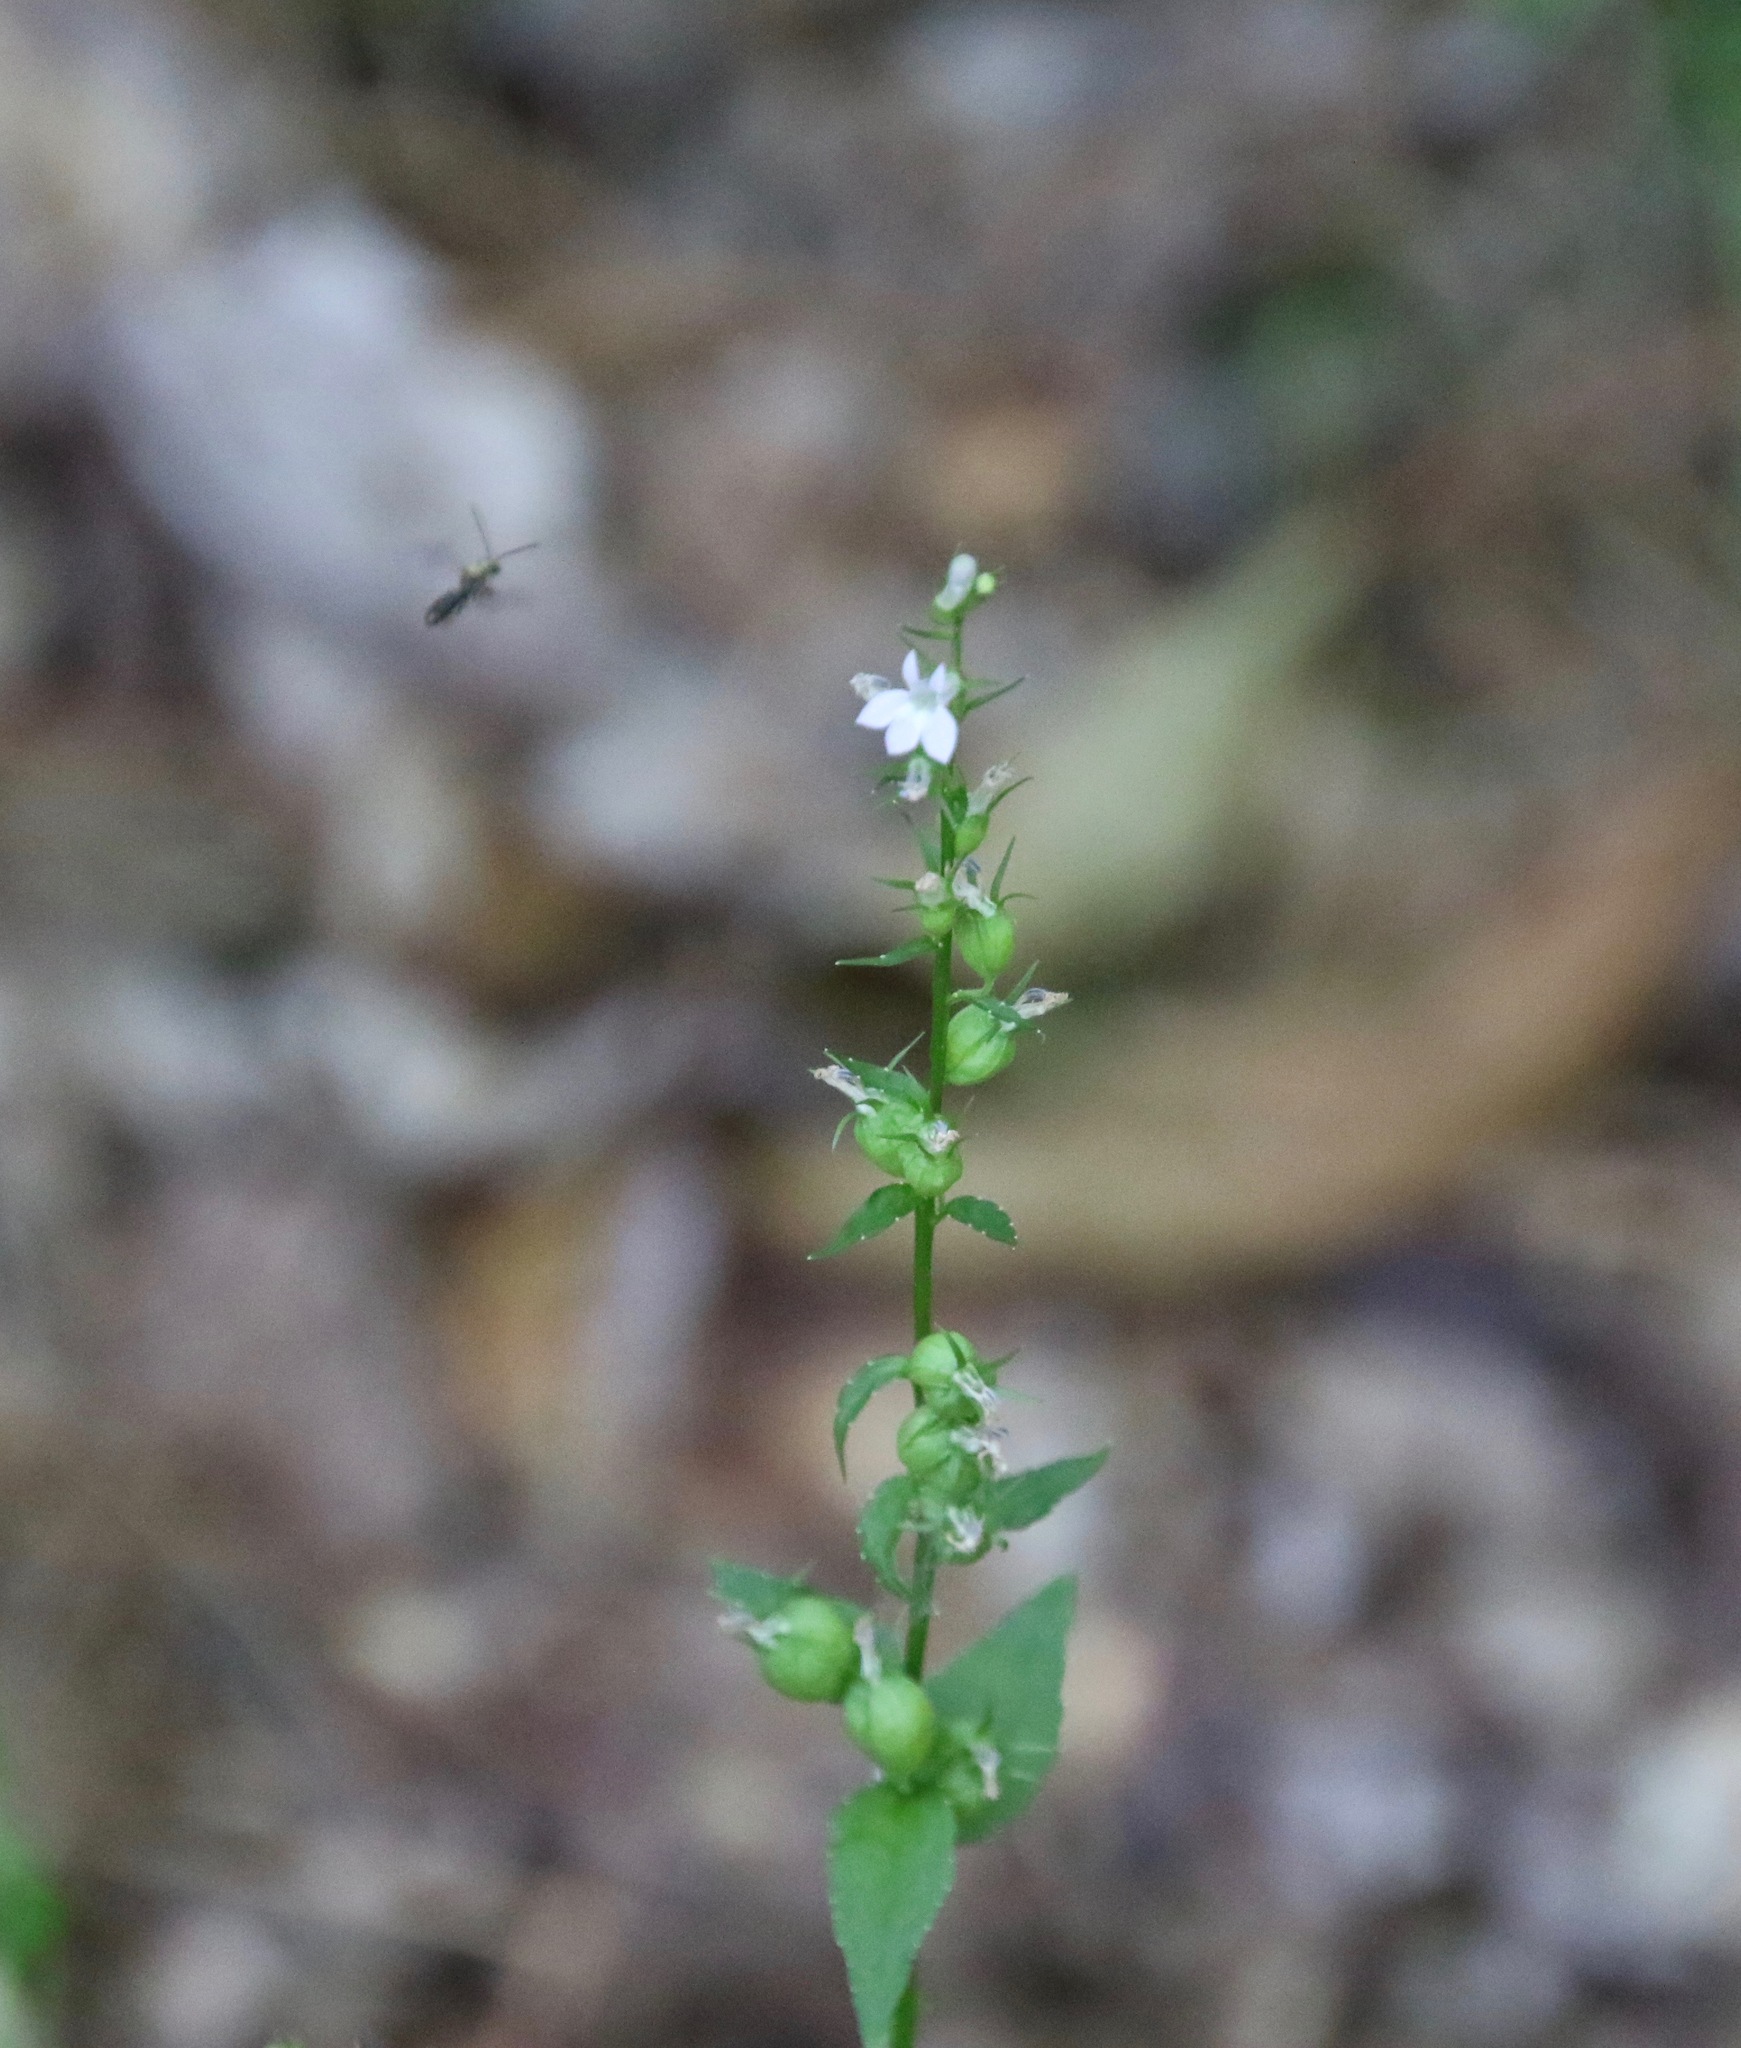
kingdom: Plantae
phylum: Tracheophyta
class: Magnoliopsida
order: Asterales
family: Campanulaceae
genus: Lobelia
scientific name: Lobelia inflata
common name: Indian tobacco
